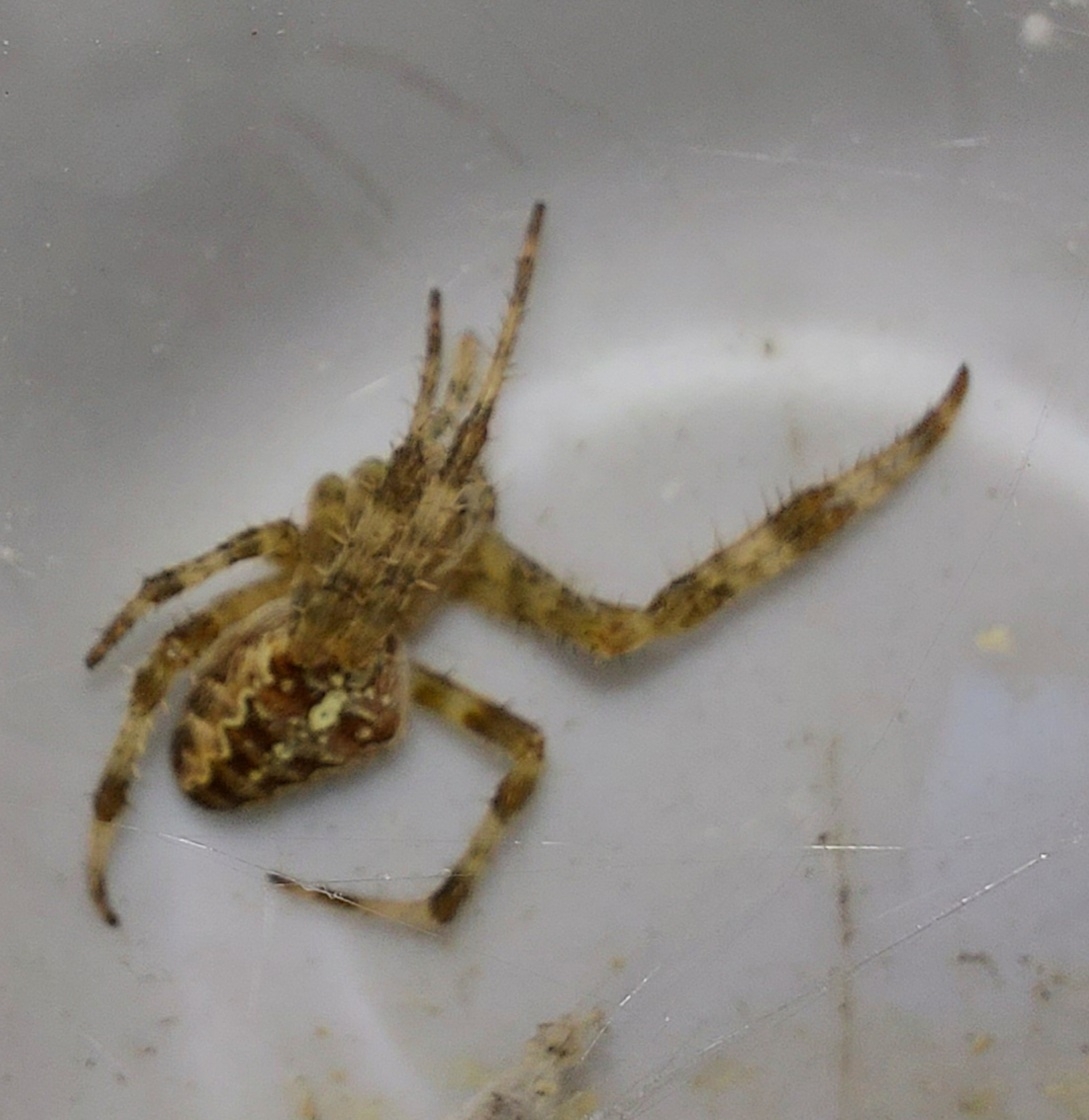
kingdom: Animalia
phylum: Arthropoda
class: Arachnida
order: Araneae
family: Araneidae
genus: Araneus
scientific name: Araneus diadematus
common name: Cross orbweaver
